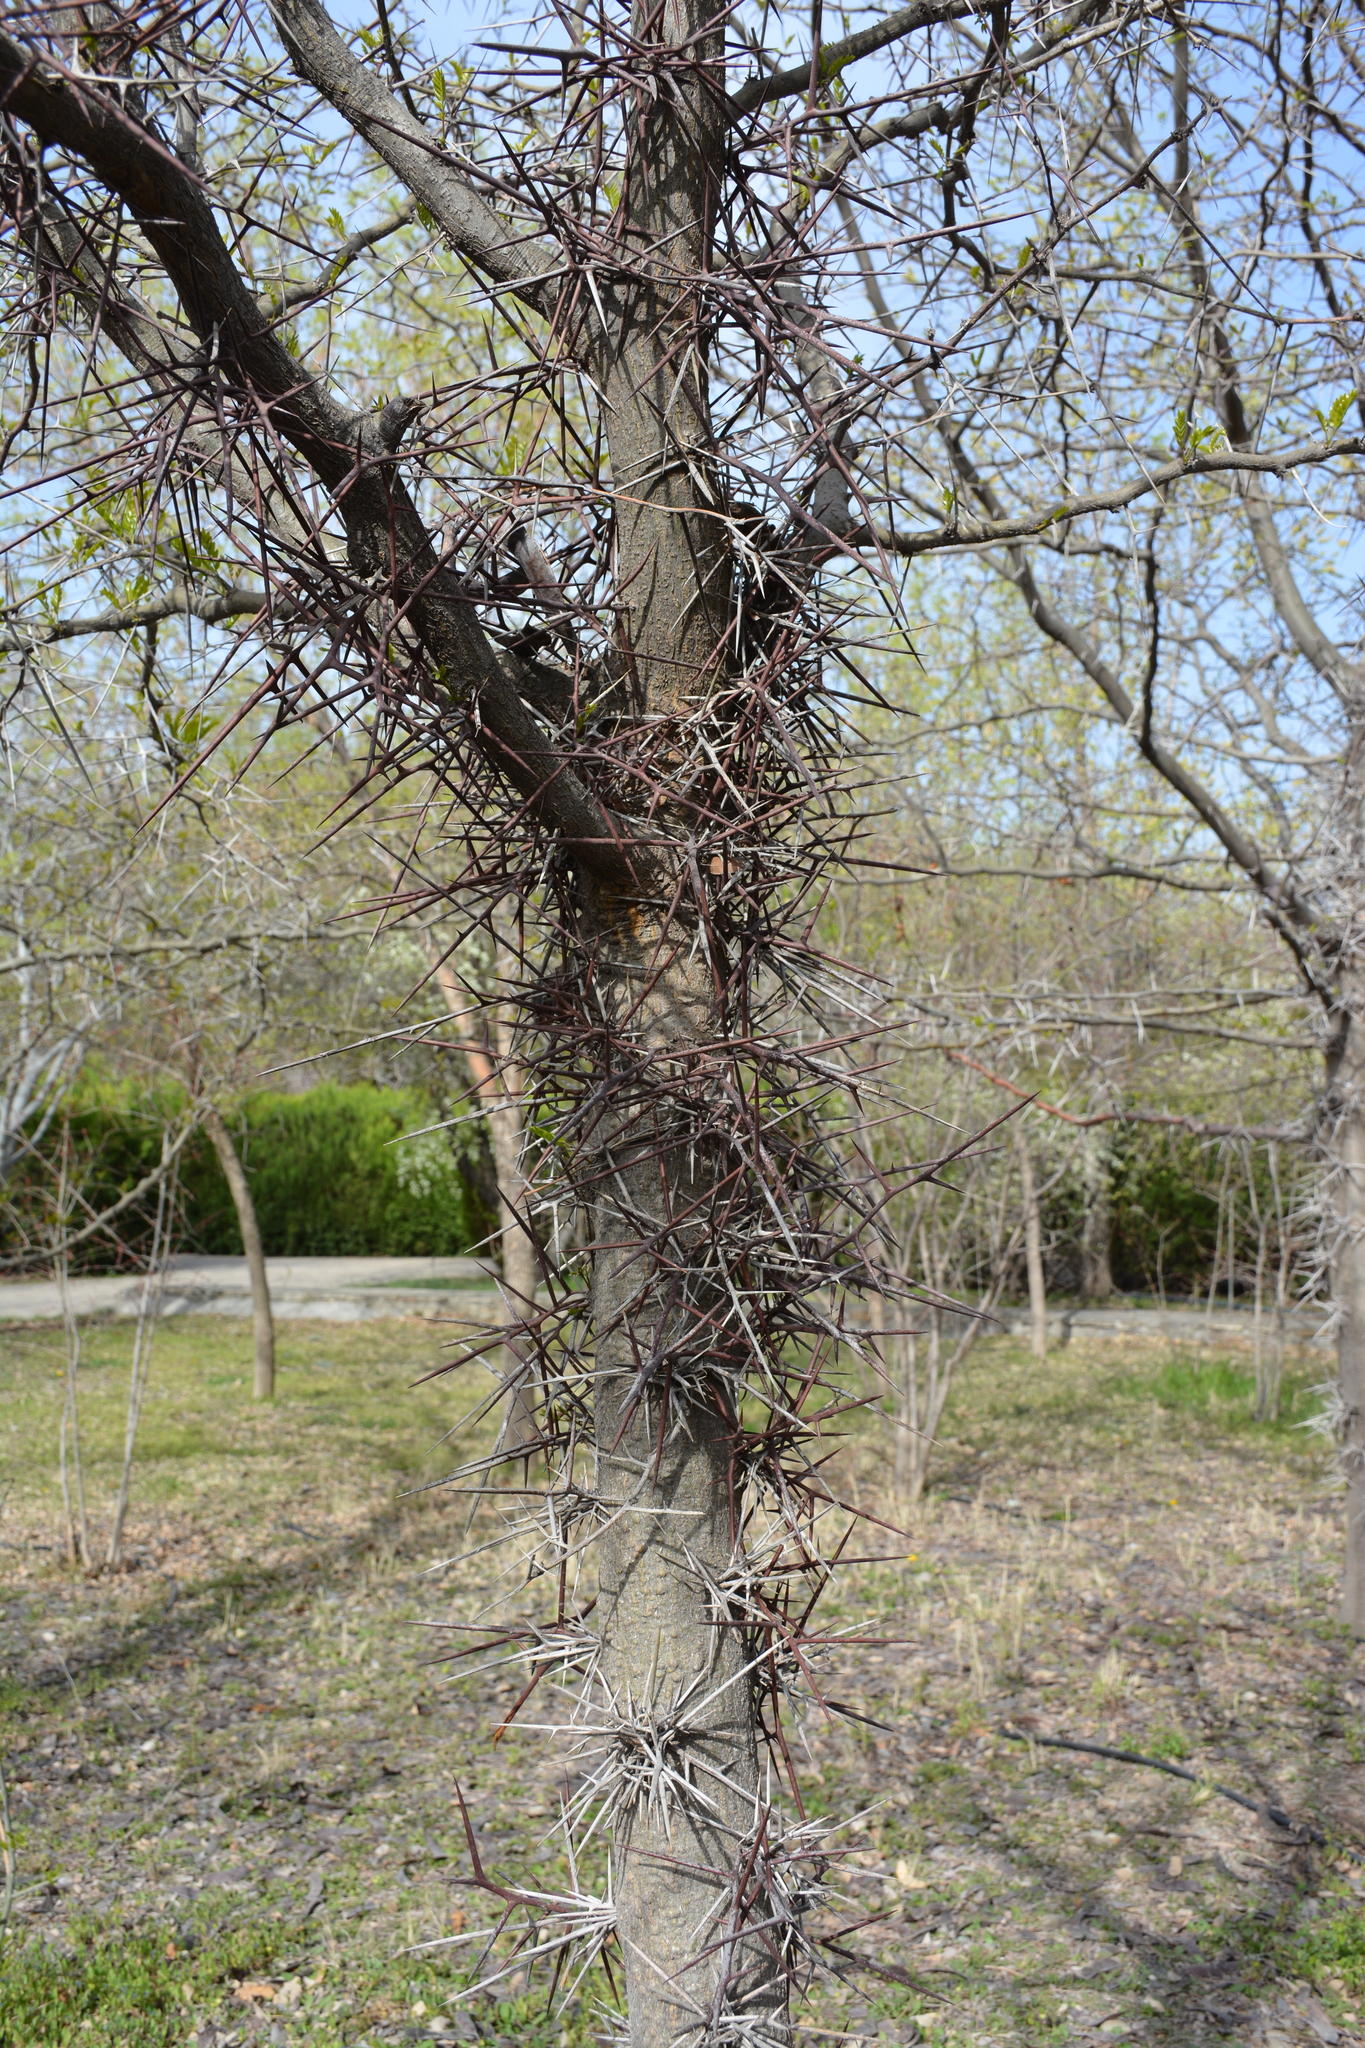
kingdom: Plantae
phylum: Tracheophyta
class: Magnoliopsida
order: Fabales
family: Fabaceae
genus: Gleditsia
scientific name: Gleditsia caspica
